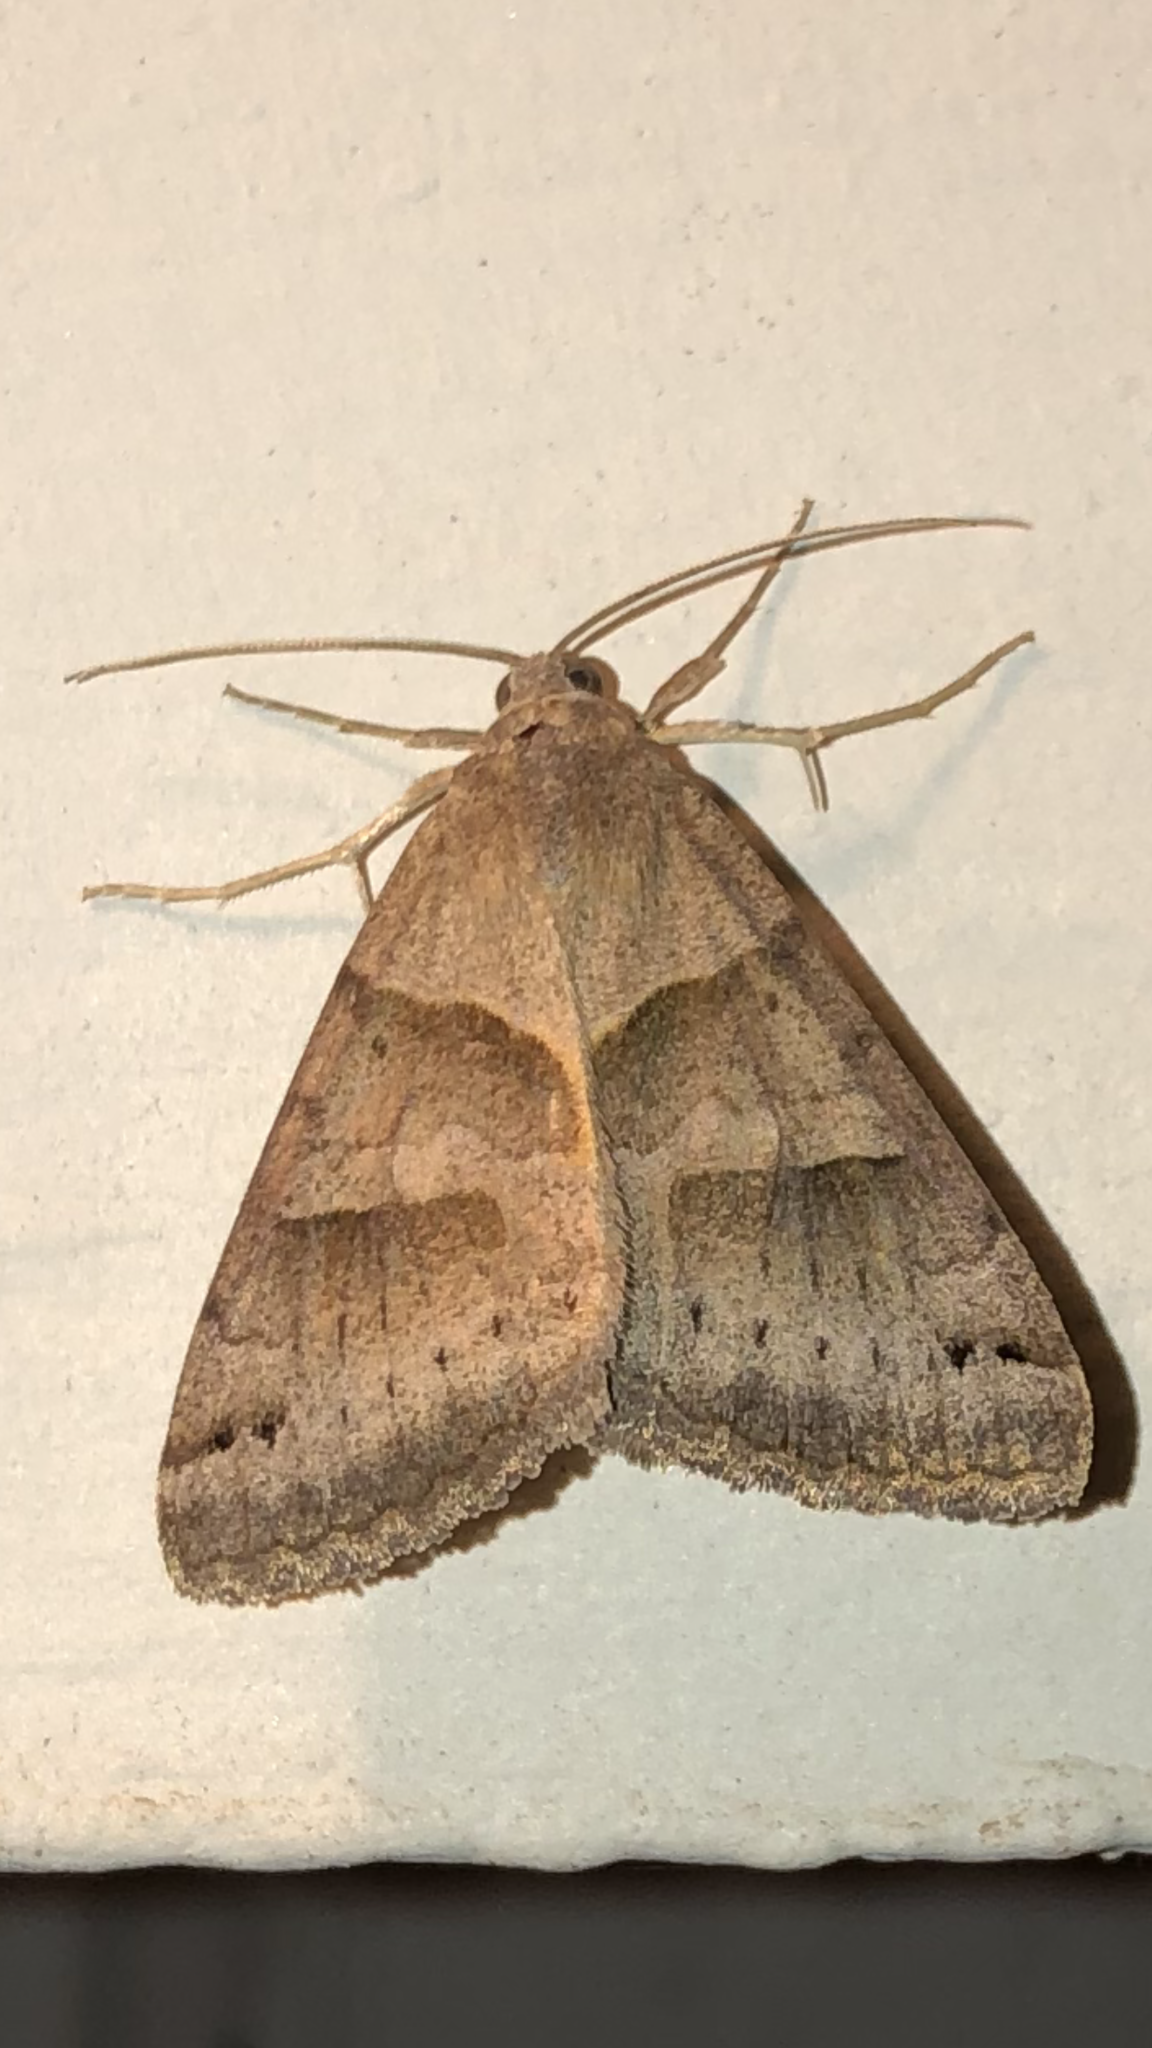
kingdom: Animalia
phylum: Arthropoda
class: Insecta
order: Lepidoptera
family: Erebidae
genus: Caenurgina
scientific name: Caenurgina erechtea
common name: Forage looper moth
